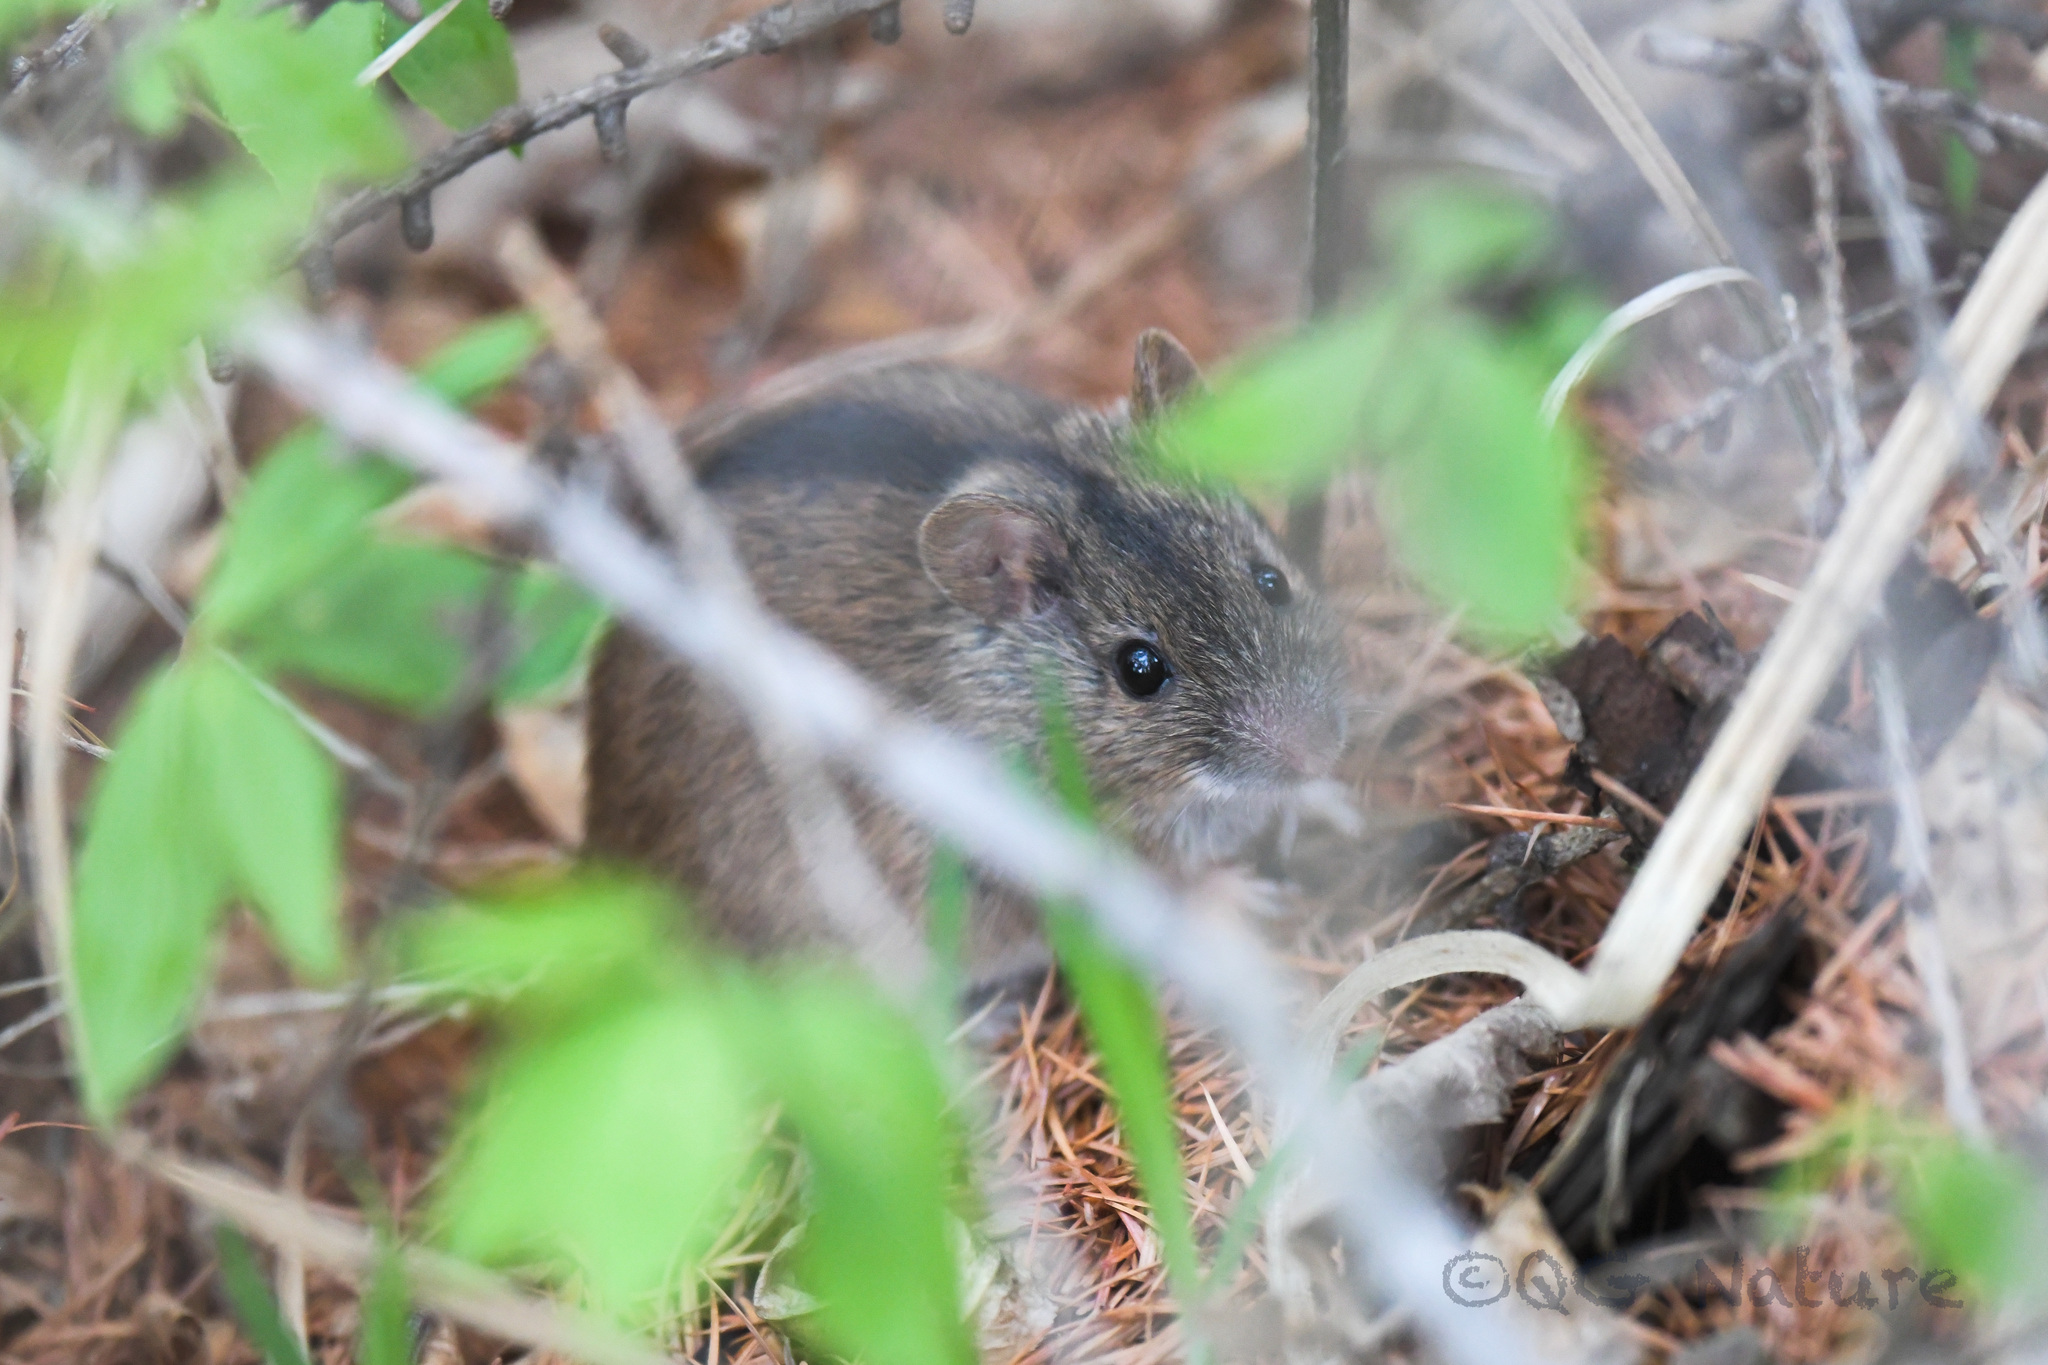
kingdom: Animalia
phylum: Chordata
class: Mammalia
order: Rodentia
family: Muridae
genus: Apodemus
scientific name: Apodemus agrarius
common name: Striped field mouse
